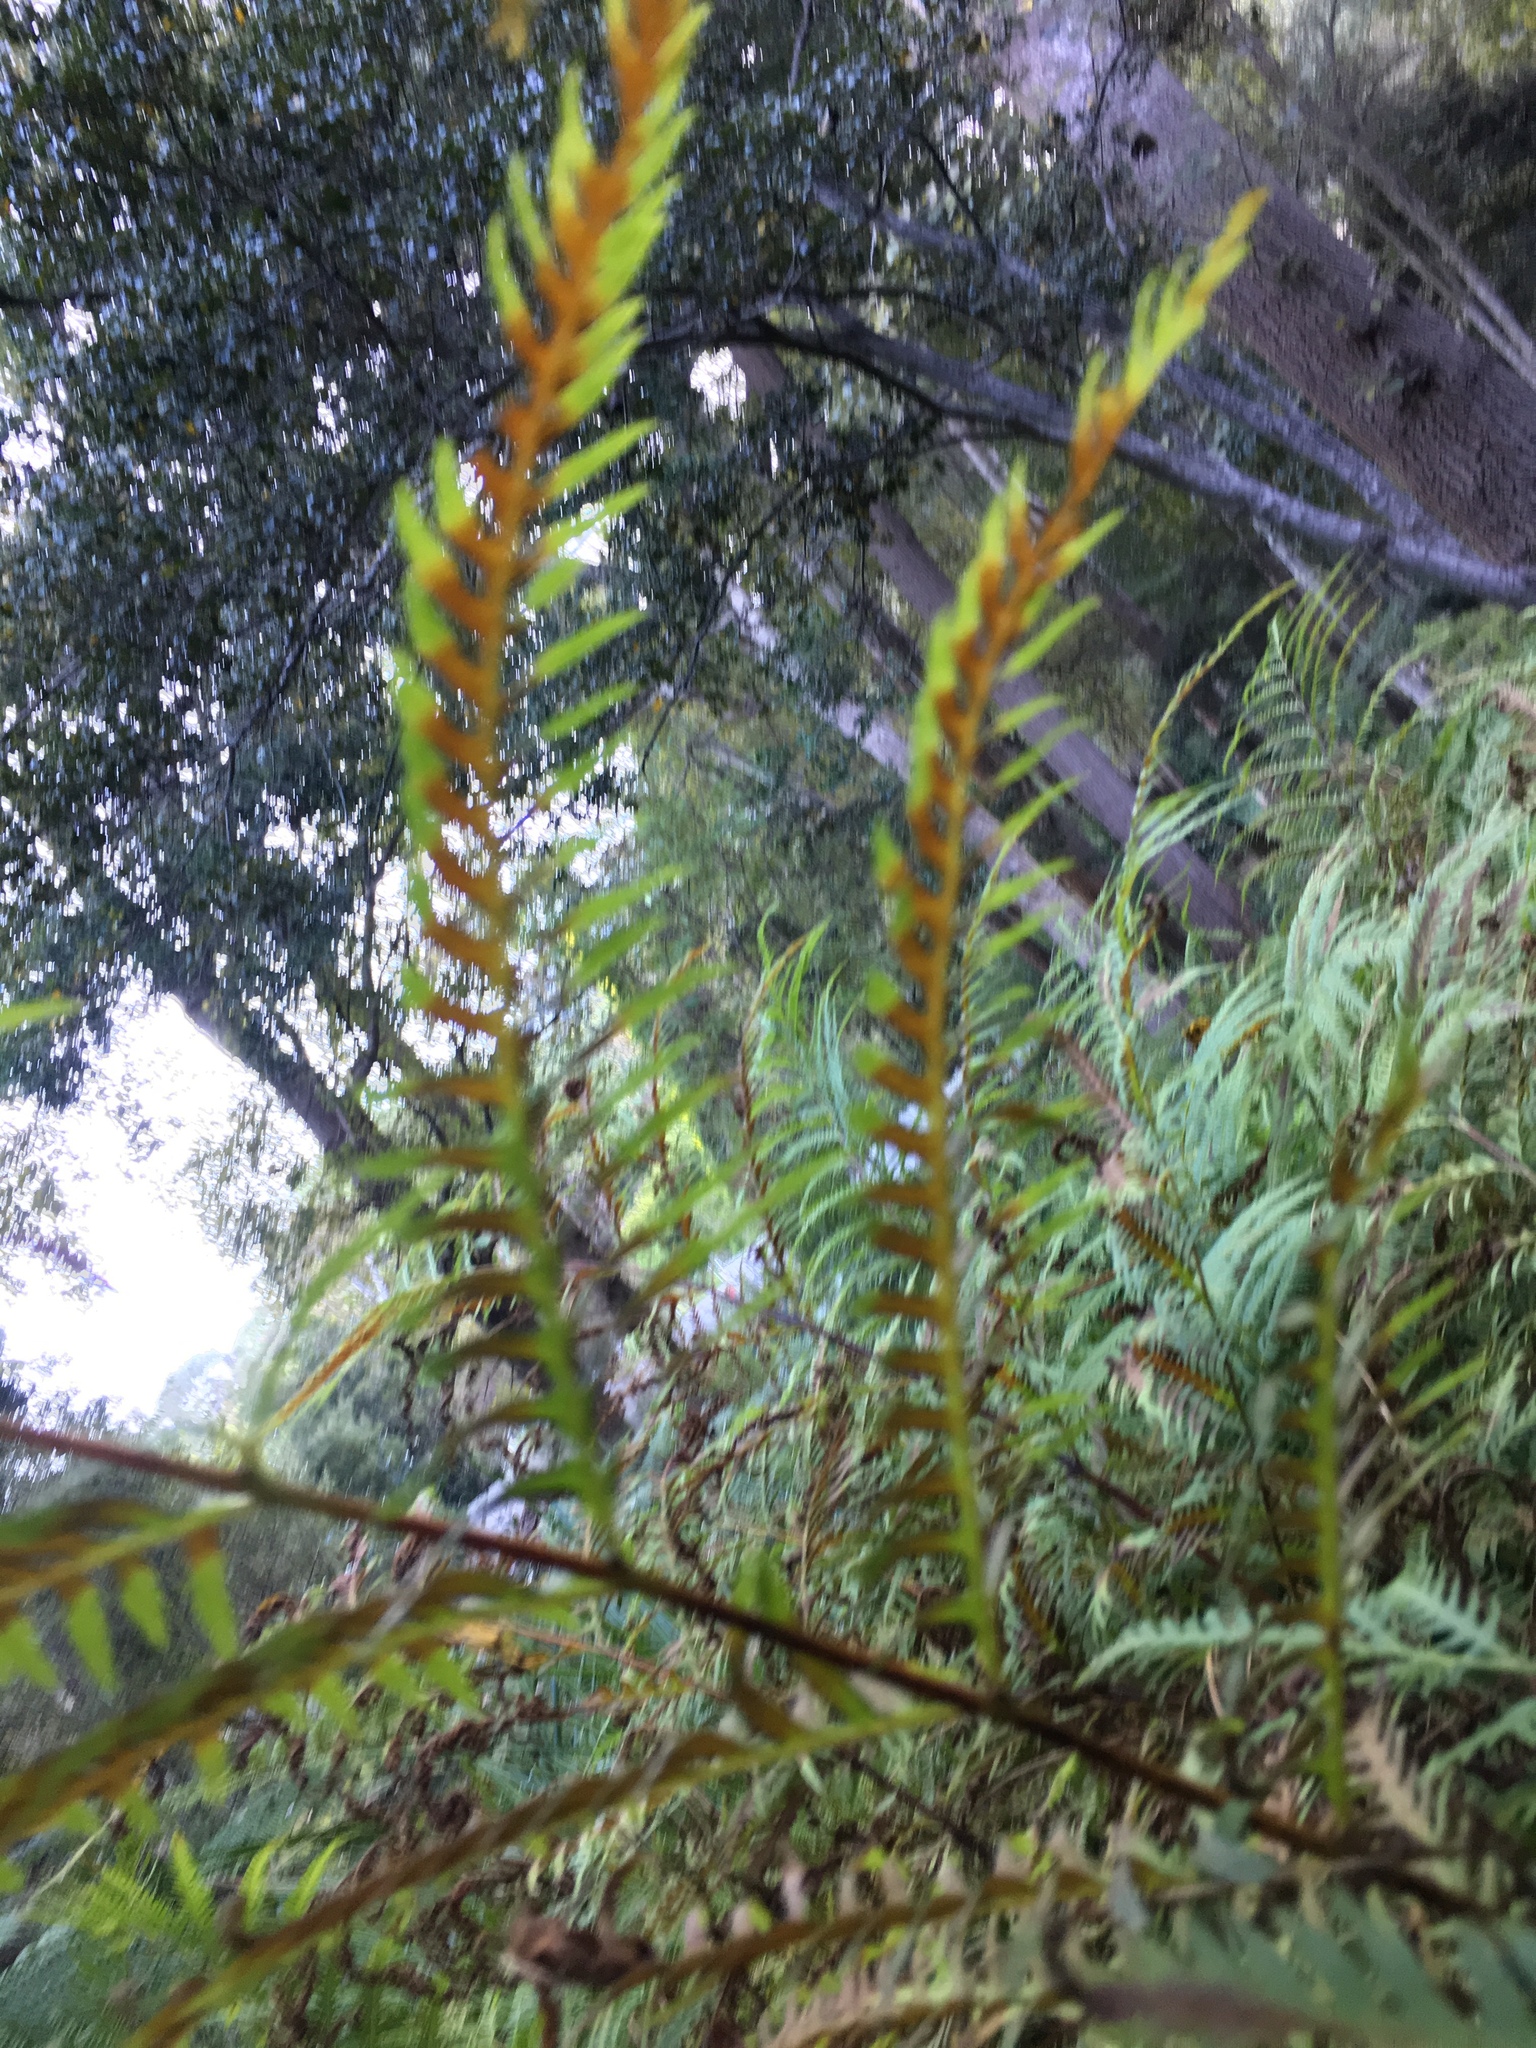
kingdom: Plantae
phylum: Tracheophyta
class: Polypodiopsida
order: Polypodiales
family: Pteridaceae
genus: Pteris
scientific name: Pteris dentata
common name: Toothed brake
